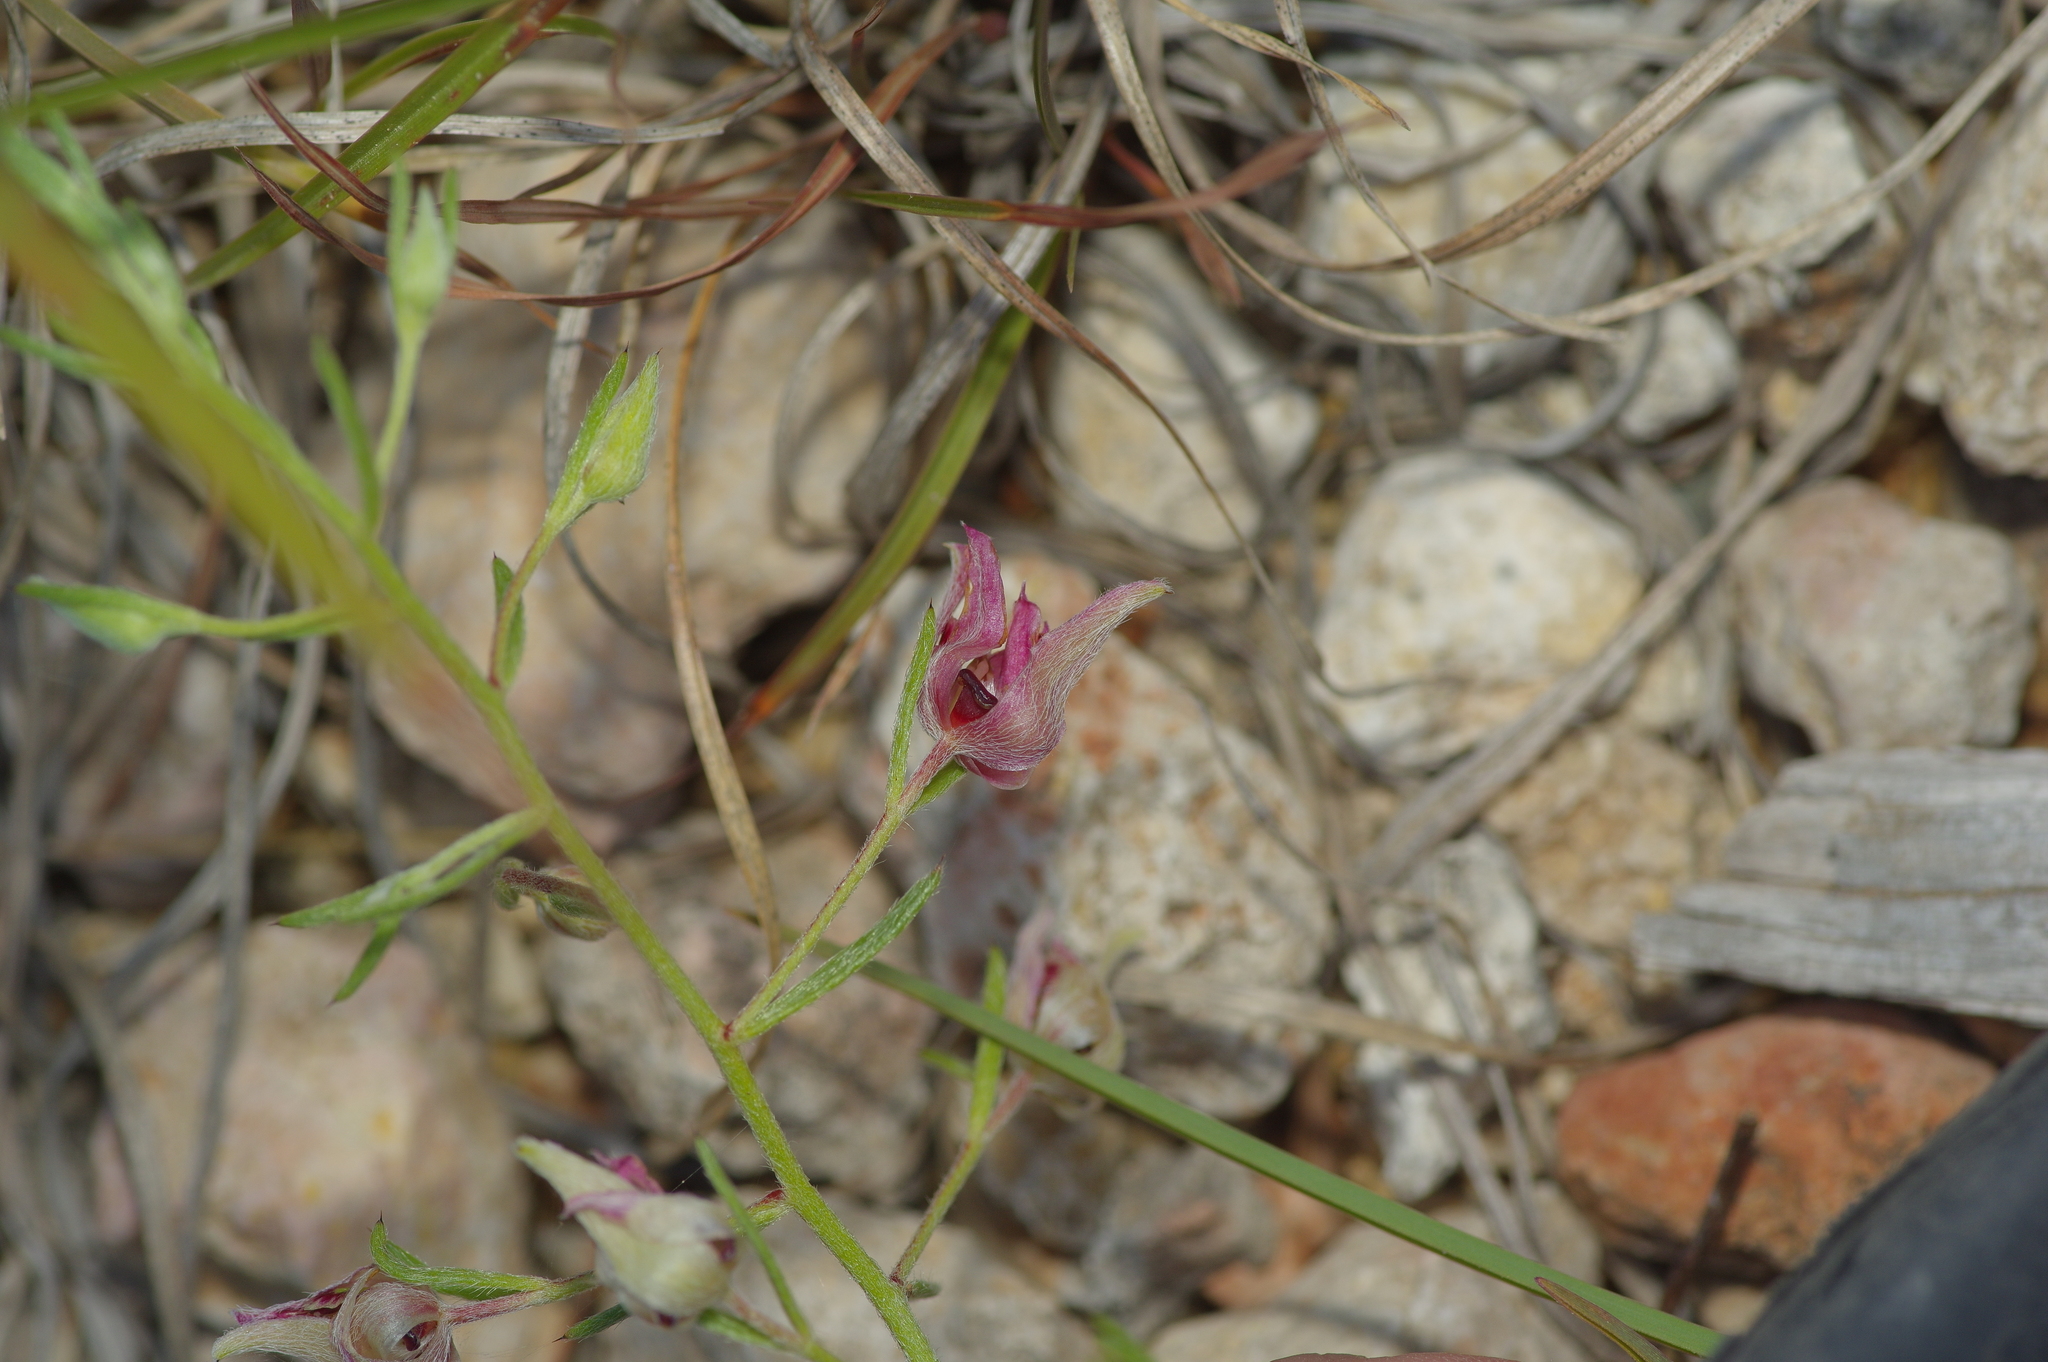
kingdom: Plantae
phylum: Tracheophyta
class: Magnoliopsida
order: Zygophyllales
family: Krameriaceae
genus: Krameria
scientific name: Krameria lanceolata
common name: Ratany
